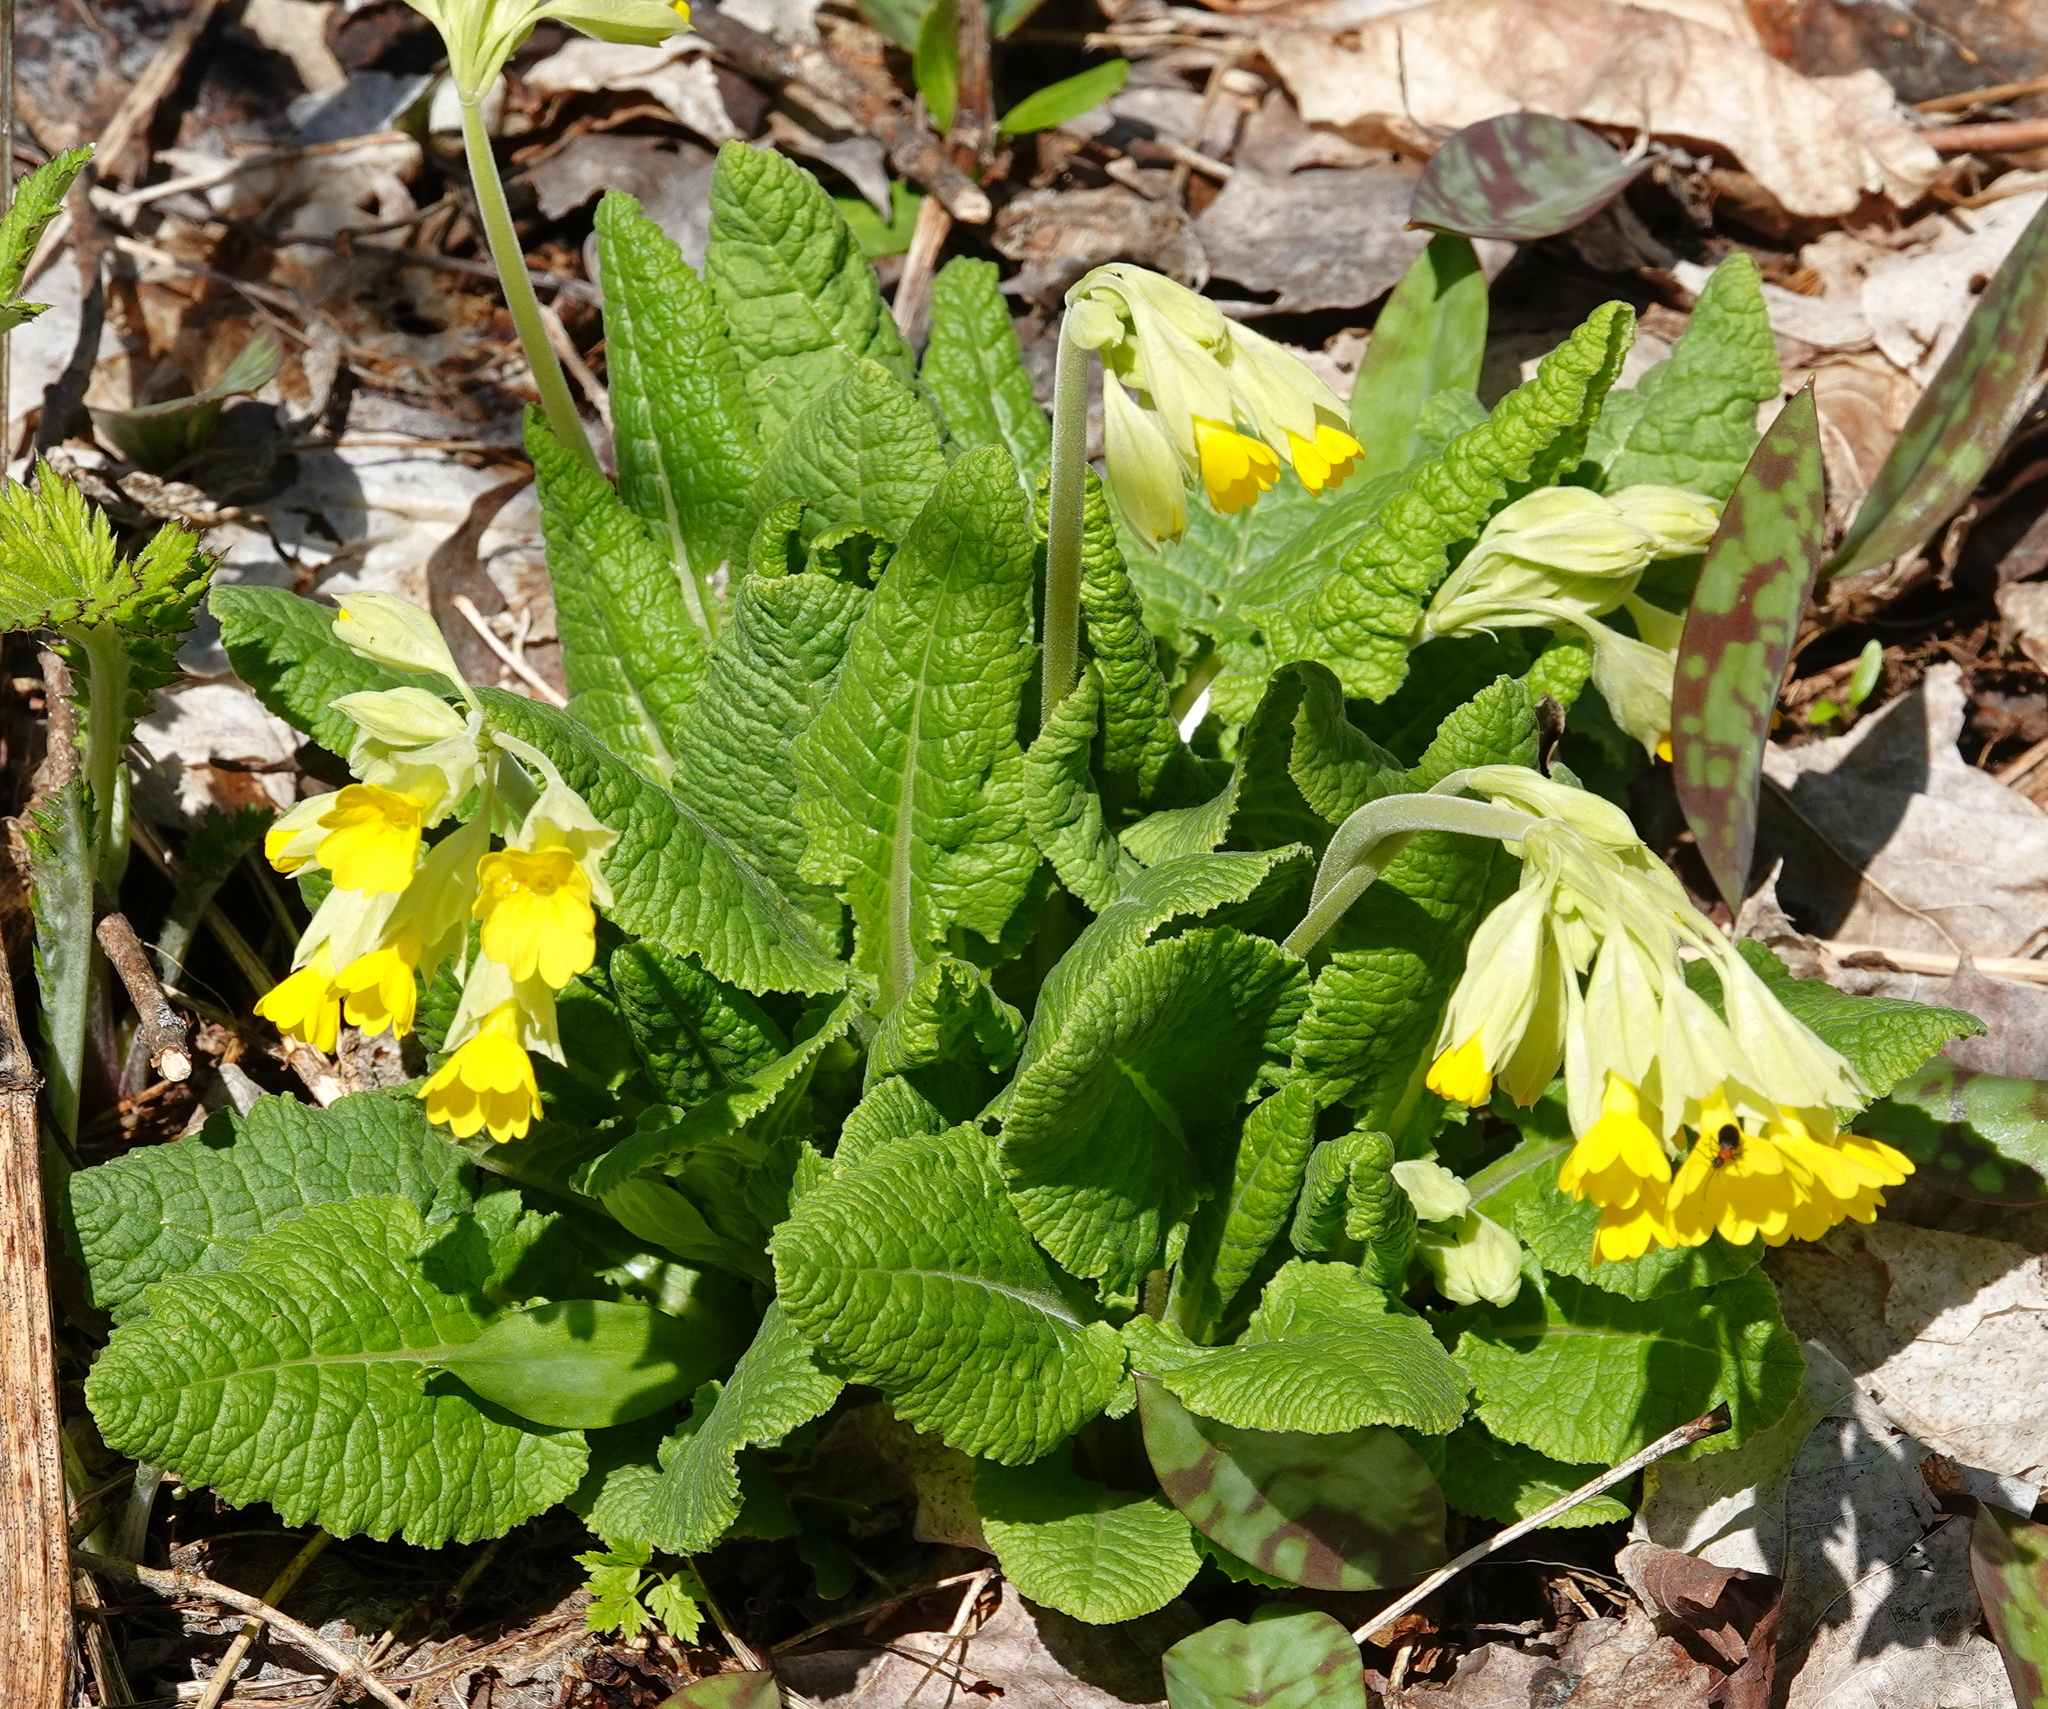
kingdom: Plantae
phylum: Tracheophyta
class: Magnoliopsida
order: Ericales
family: Primulaceae
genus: Primula
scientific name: Primula veris
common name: Cowslip
